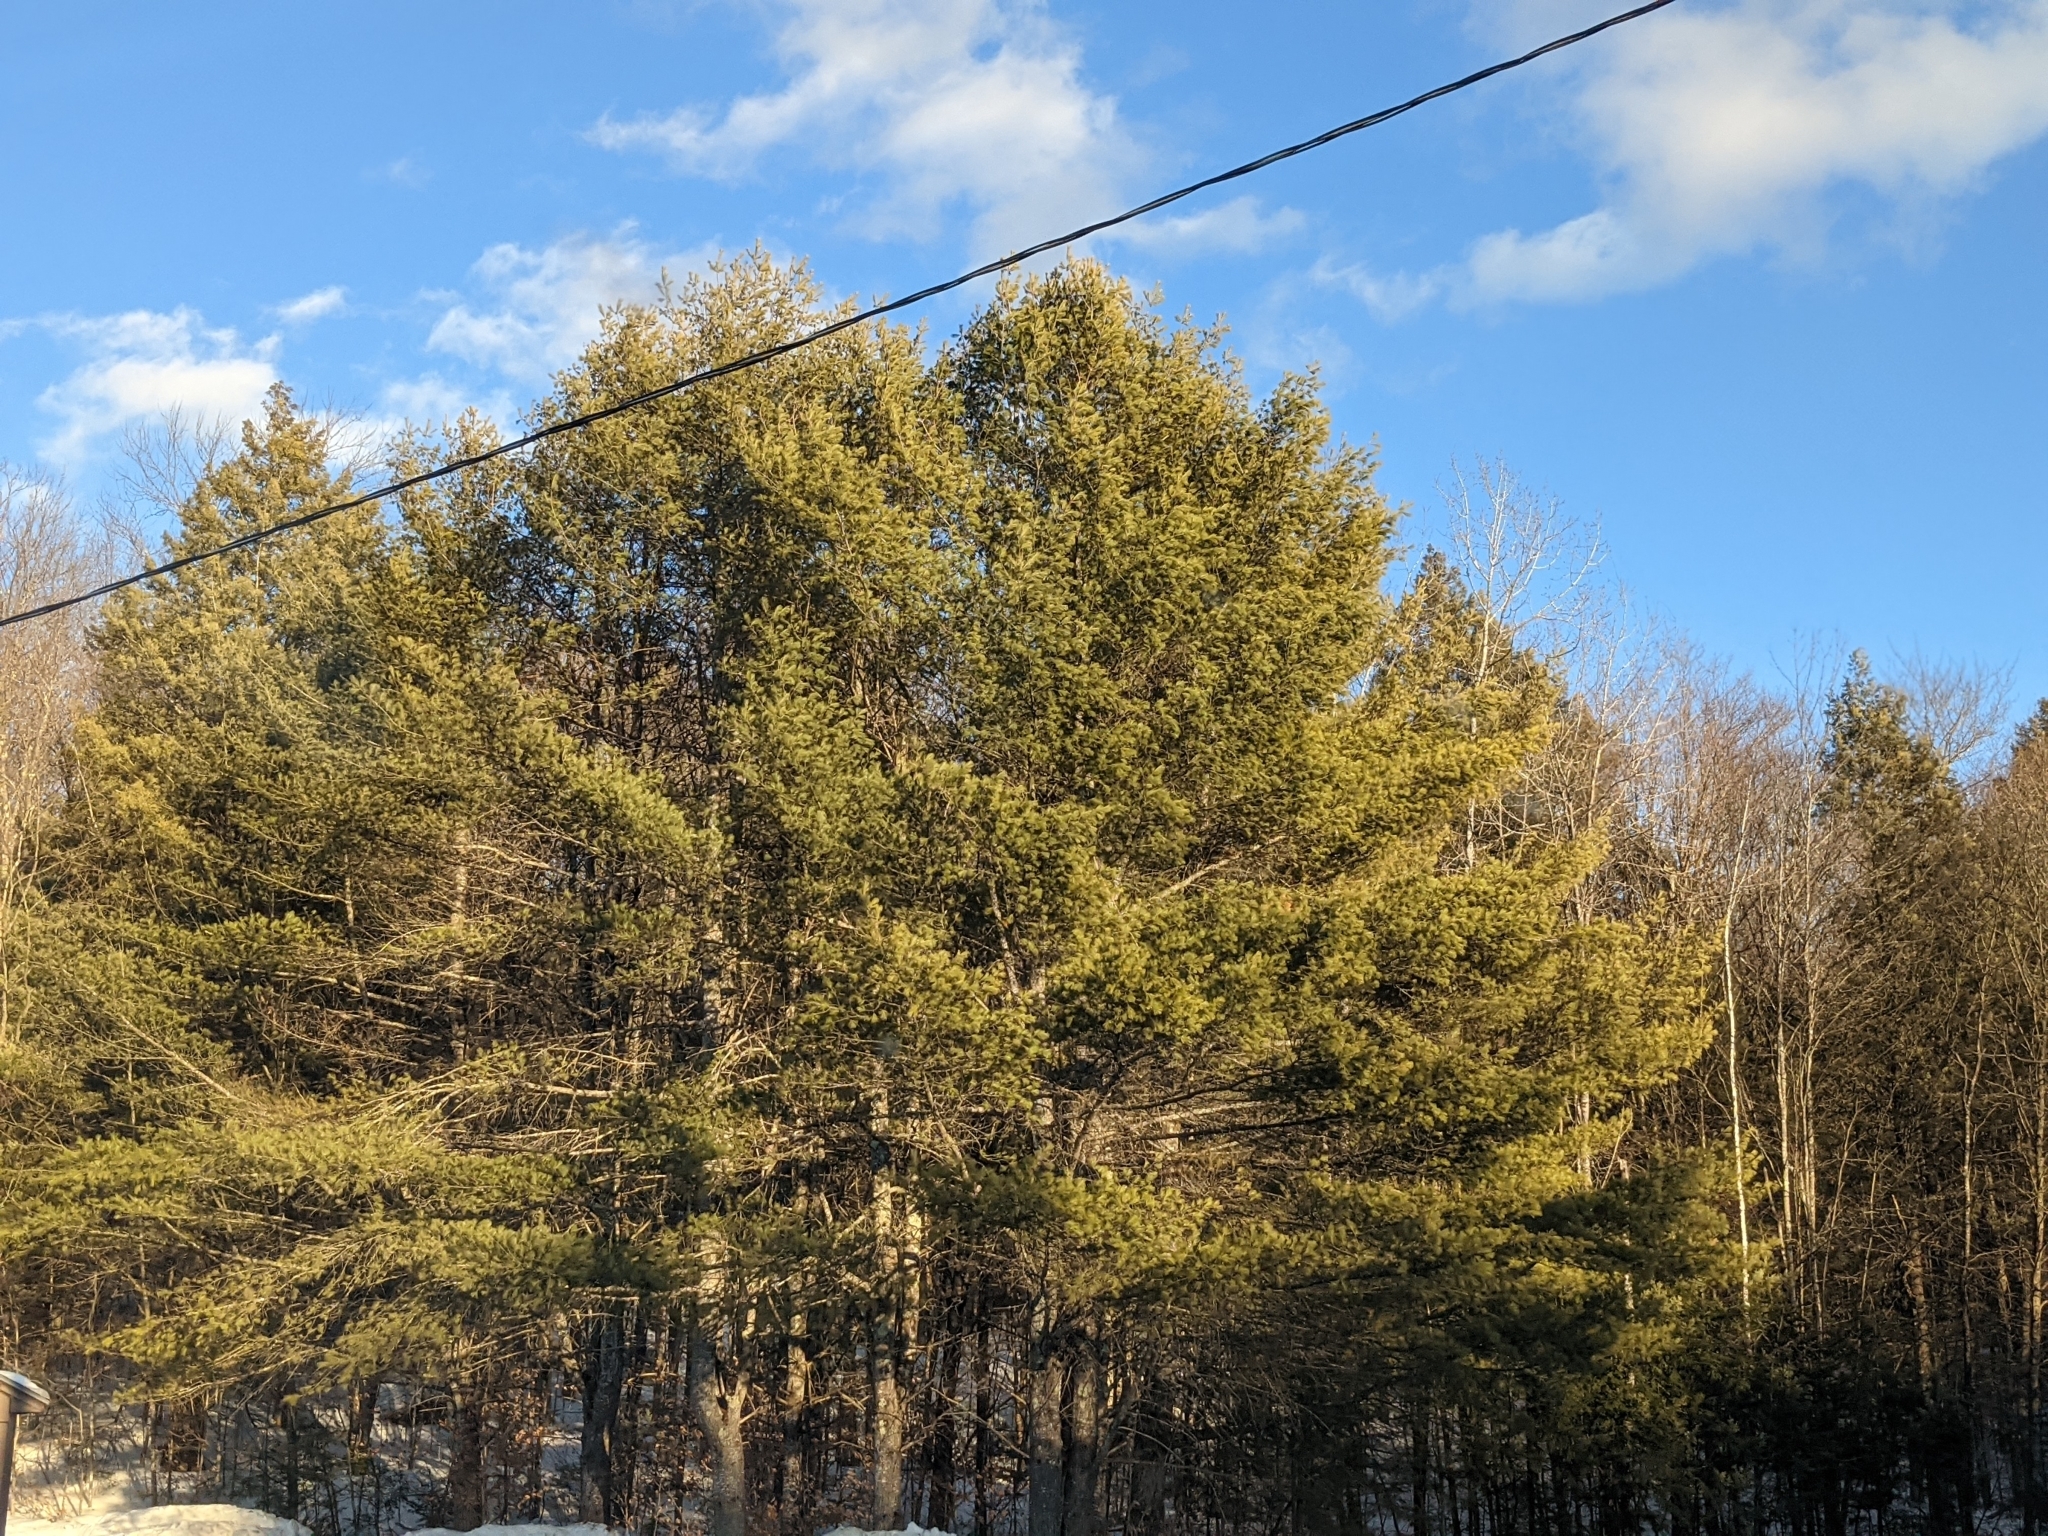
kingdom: Plantae
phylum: Tracheophyta
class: Pinopsida
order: Pinales
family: Pinaceae
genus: Pinus
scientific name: Pinus strobus
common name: Weymouth pine
